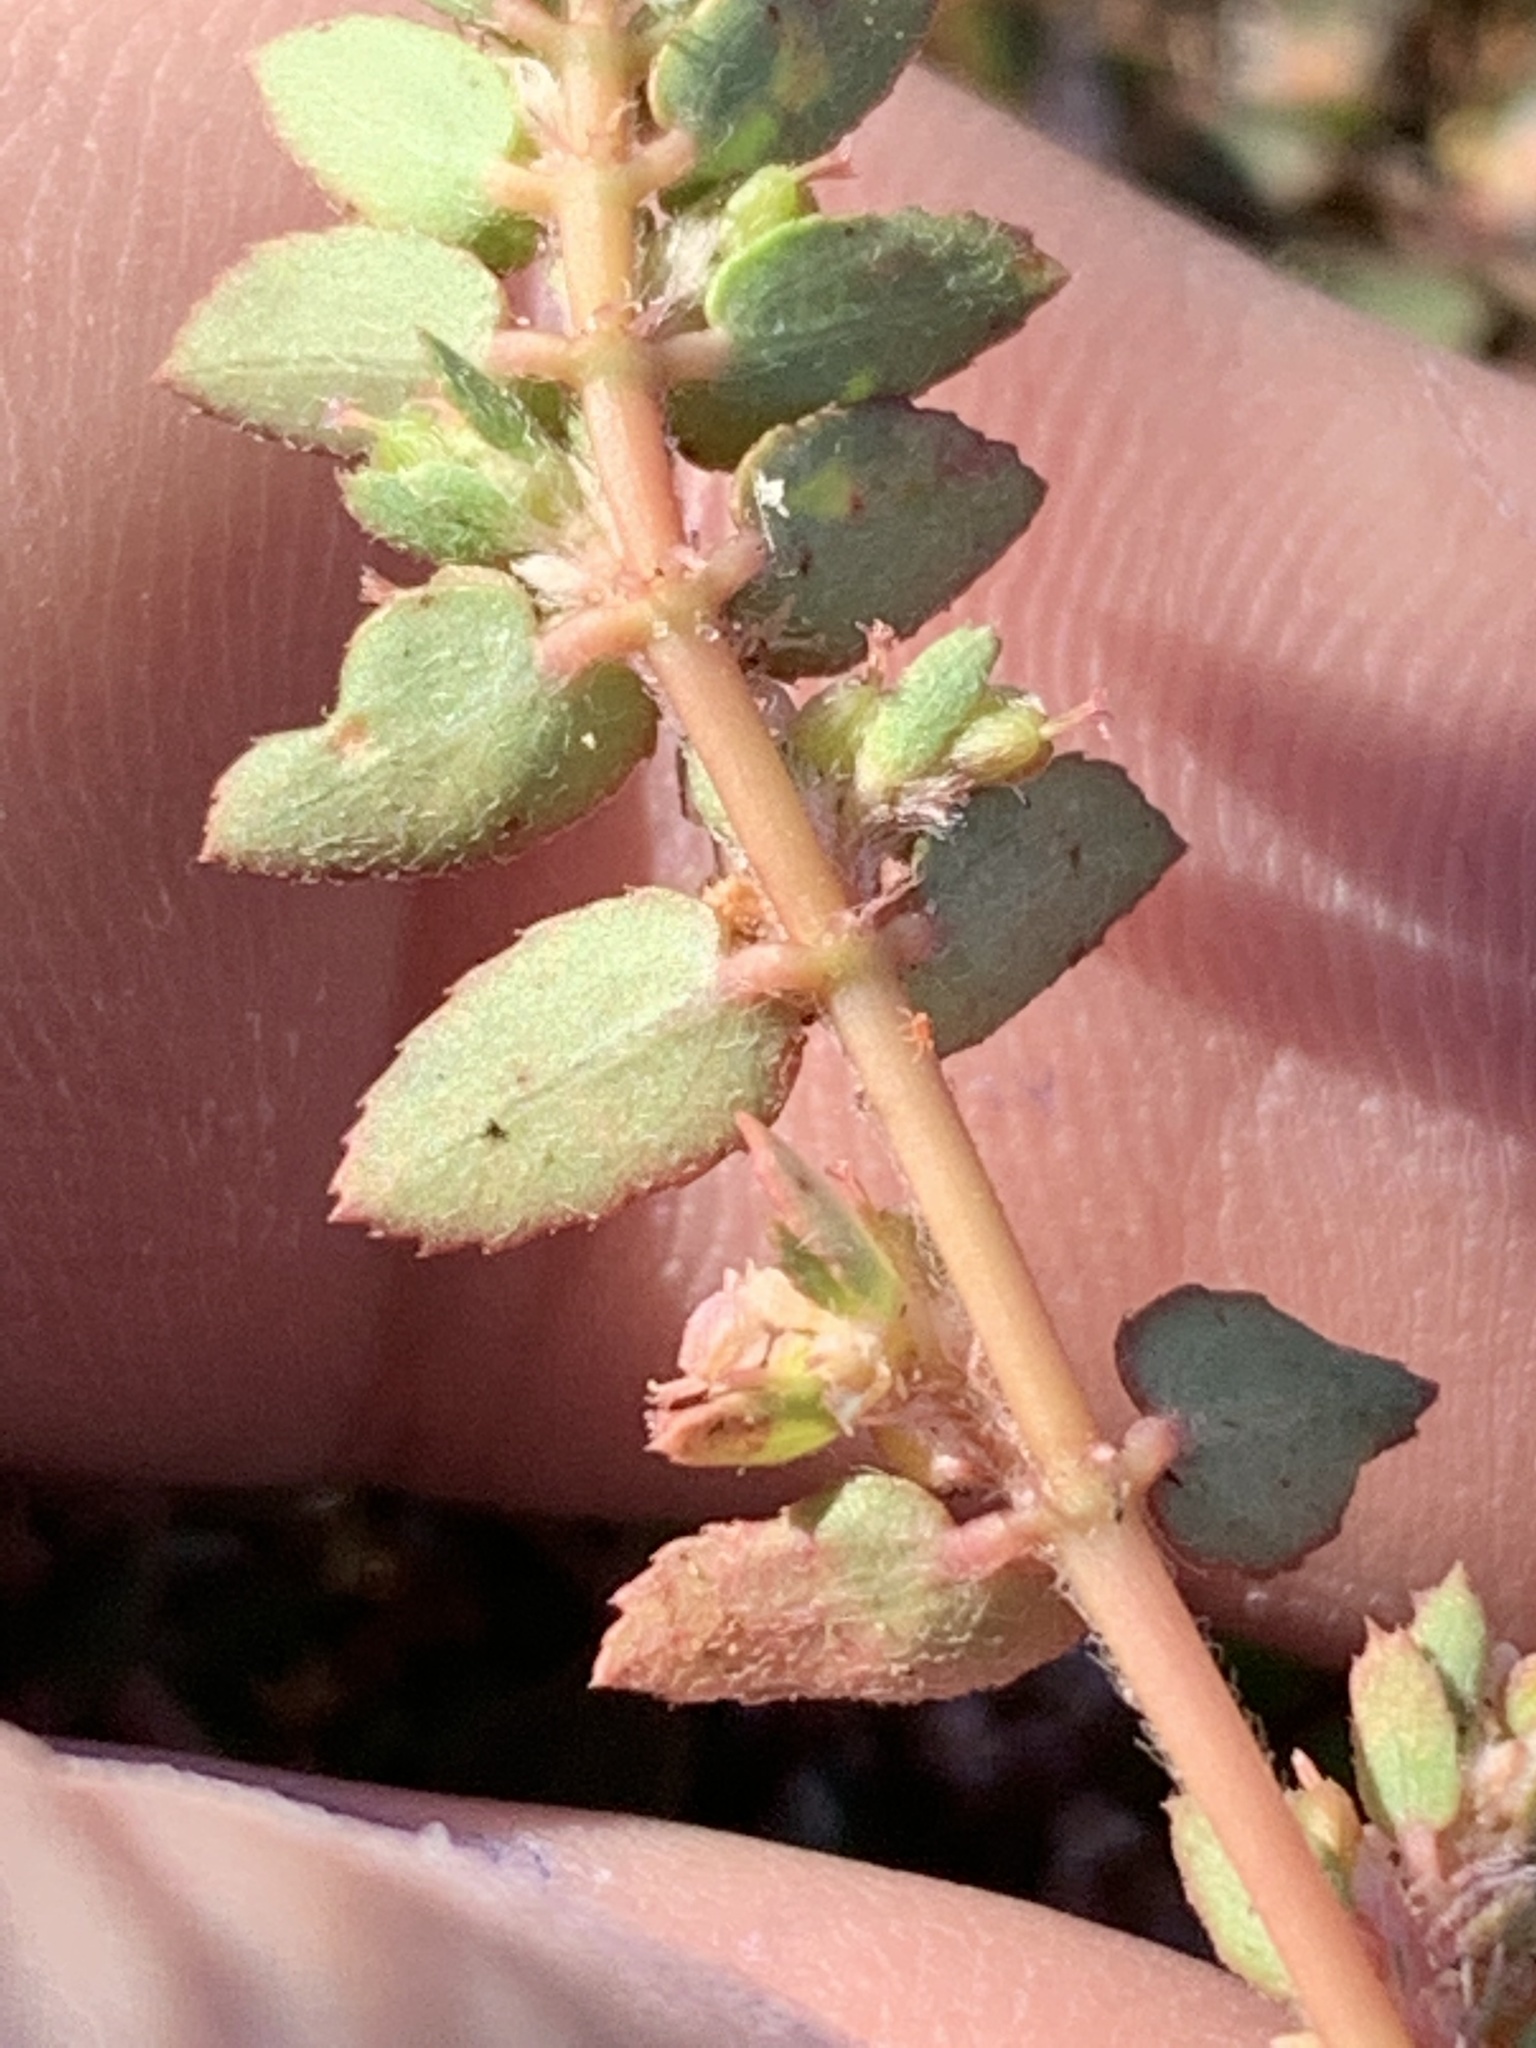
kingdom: Plantae
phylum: Tracheophyta
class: Magnoliopsida
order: Malpighiales
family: Euphorbiaceae
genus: Euphorbia
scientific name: Euphorbia thymifolia
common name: Gulf sandmat
